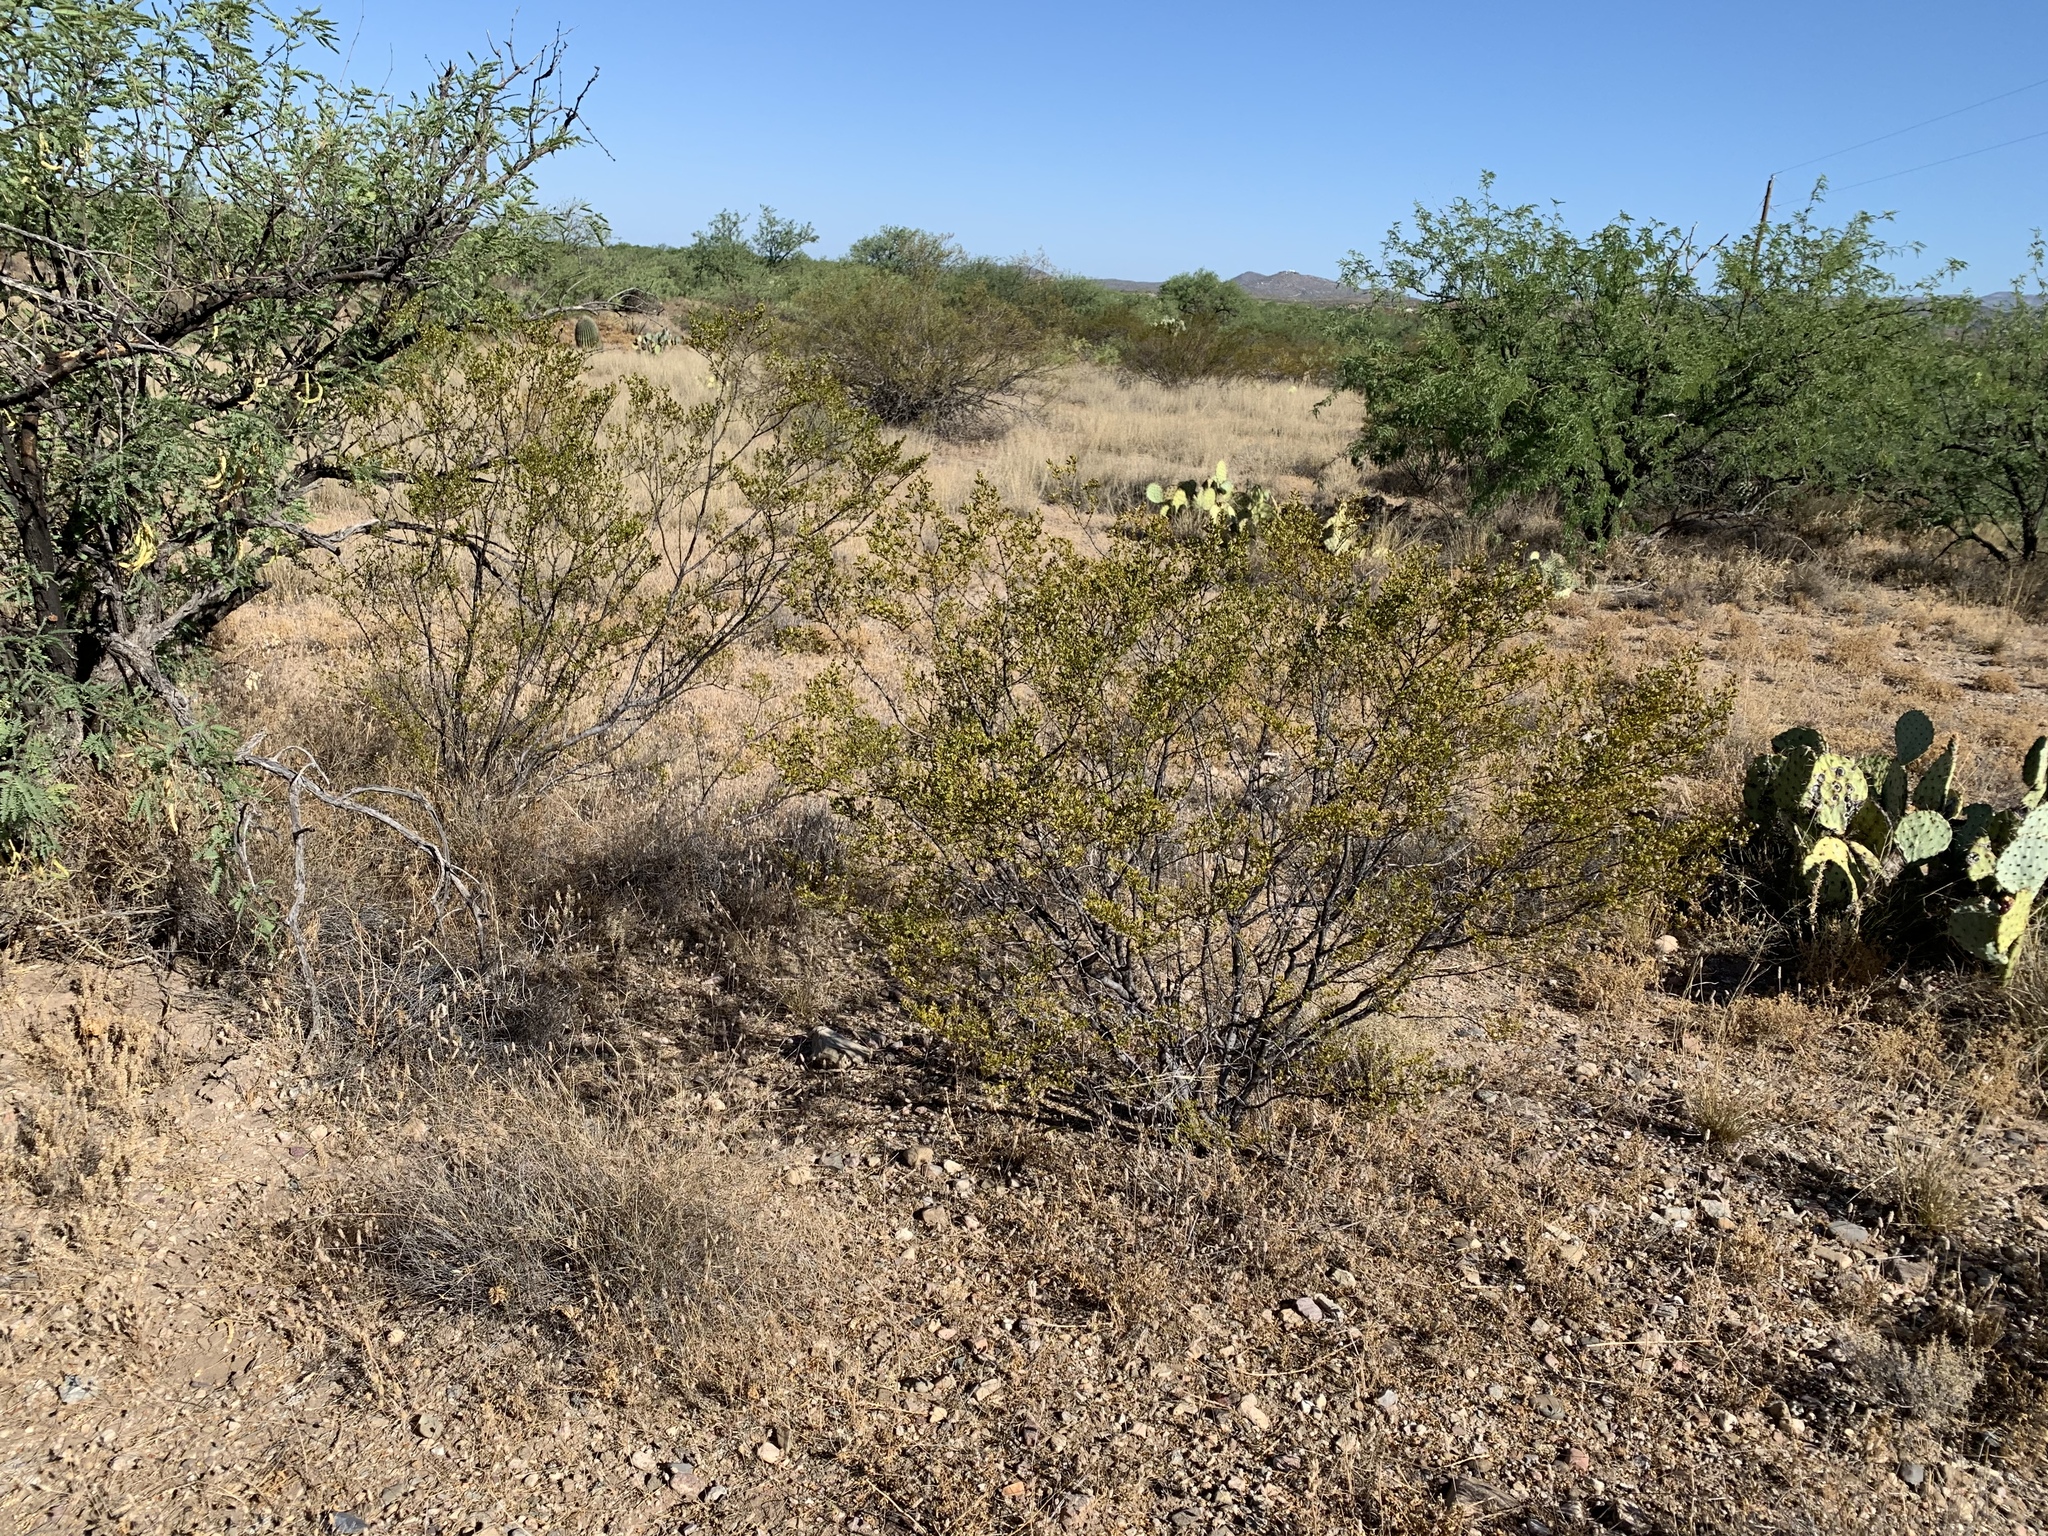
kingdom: Plantae
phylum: Tracheophyta
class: Magnoliopsida
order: Zygophyllales
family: Zygophyllaceae
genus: Larrea
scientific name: Larrea tridentata
